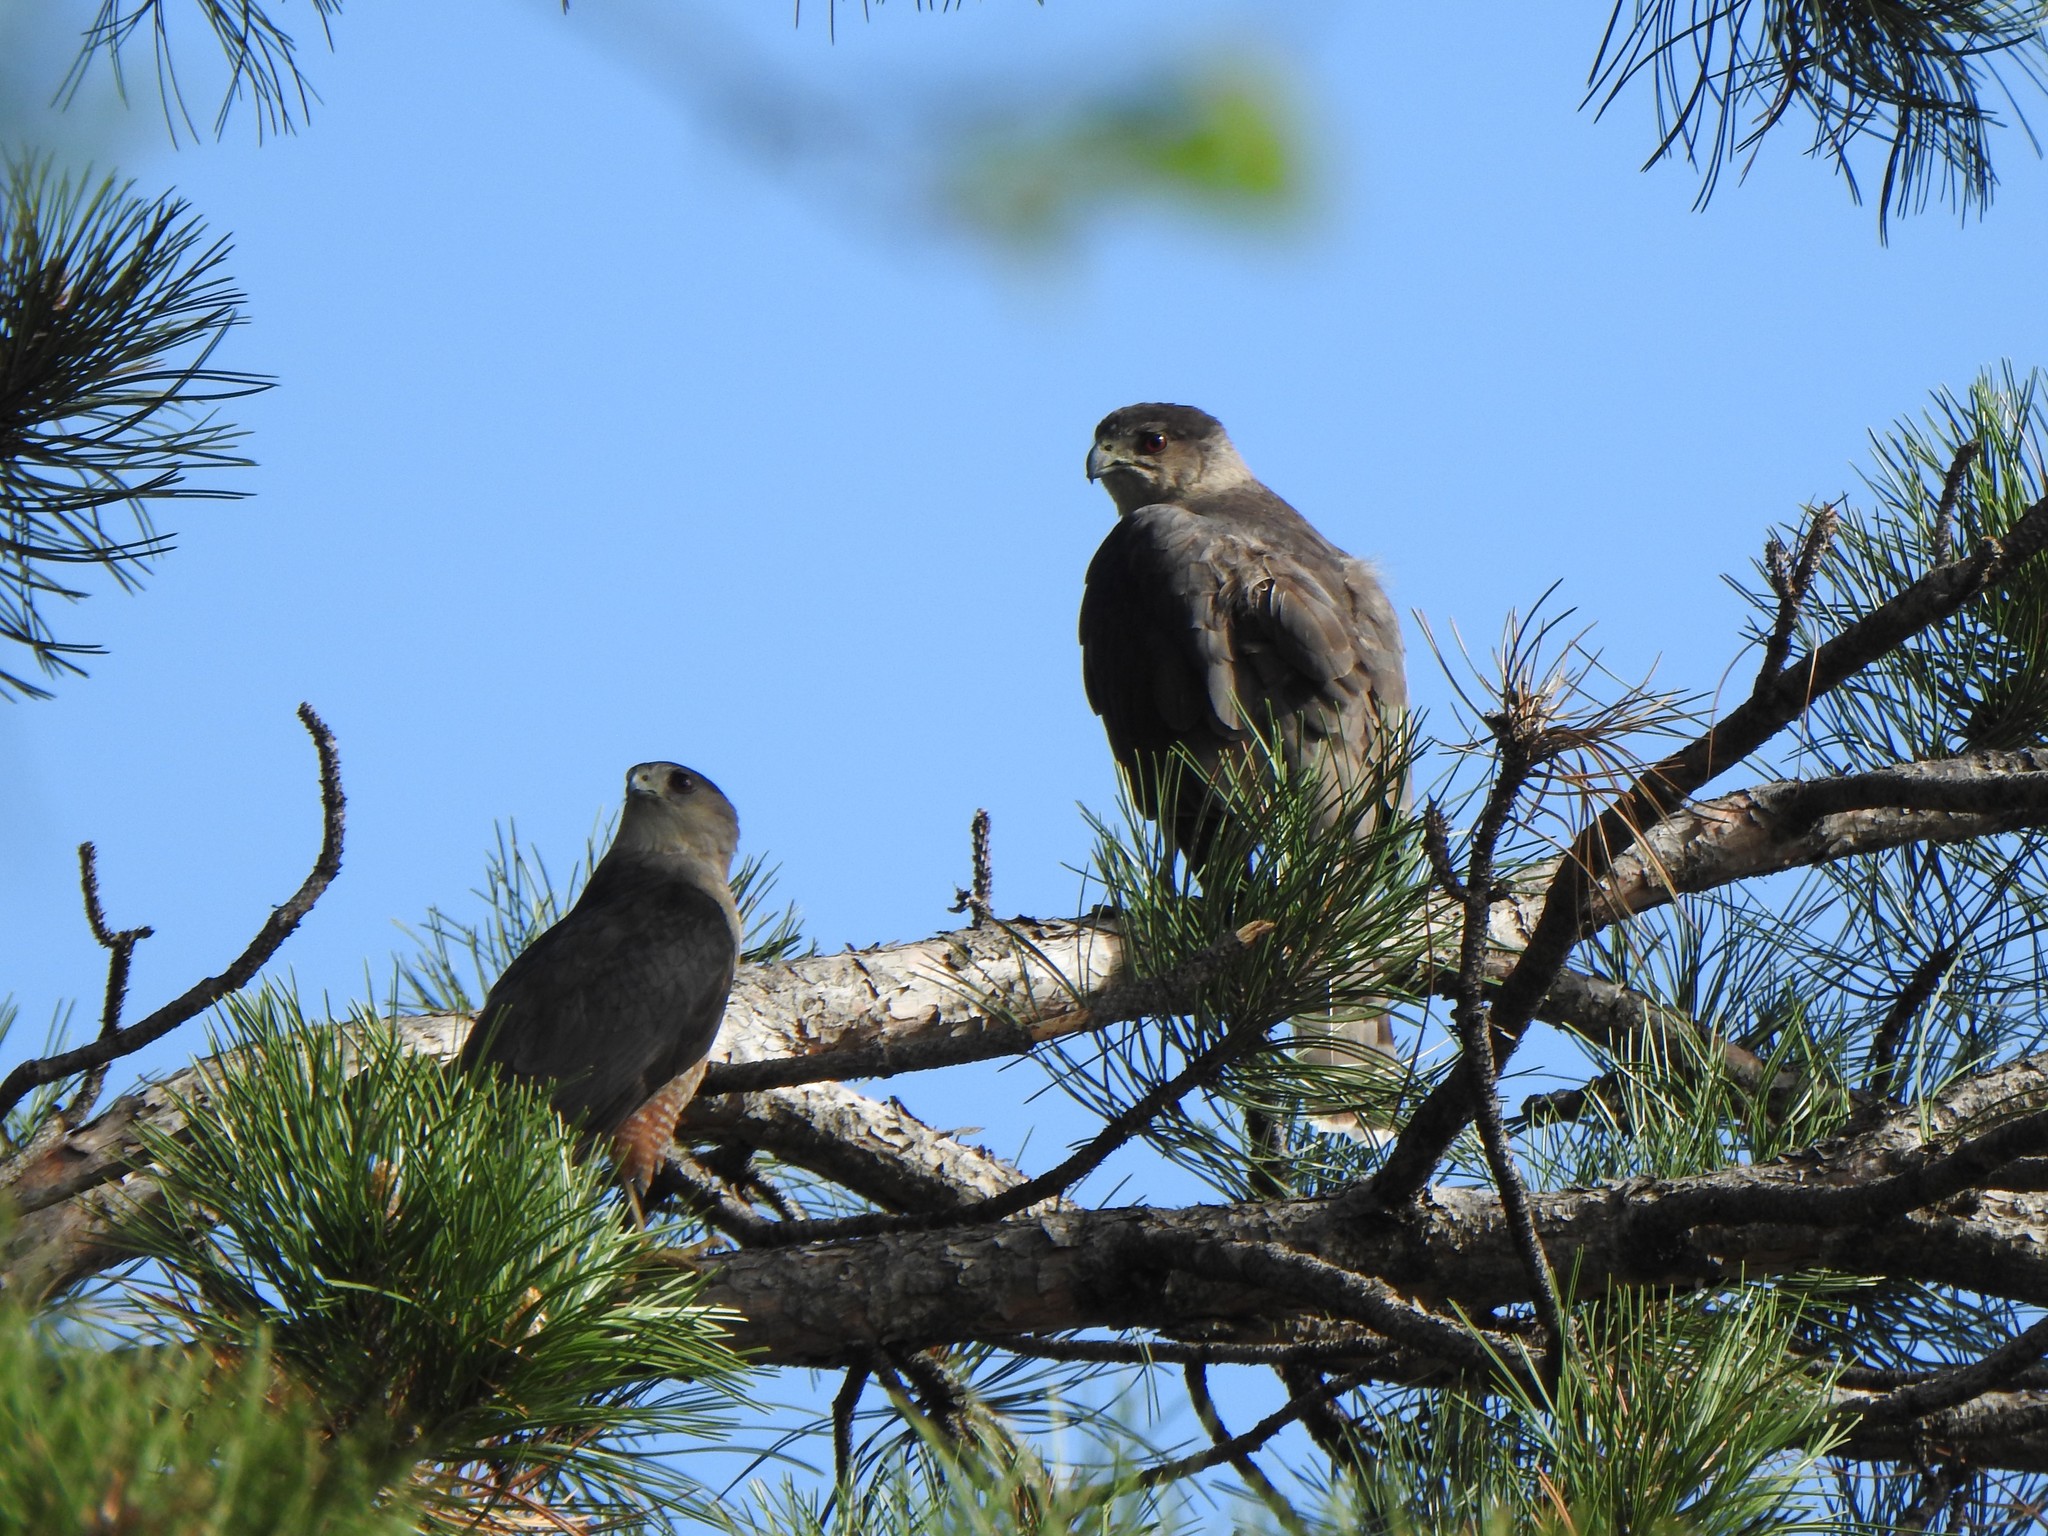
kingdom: Animalia
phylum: Chordata
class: Aves
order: Accipitriformes
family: Accipitridae
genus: Accipiter
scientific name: Accipiter cooperii
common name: Cooper's hawk
